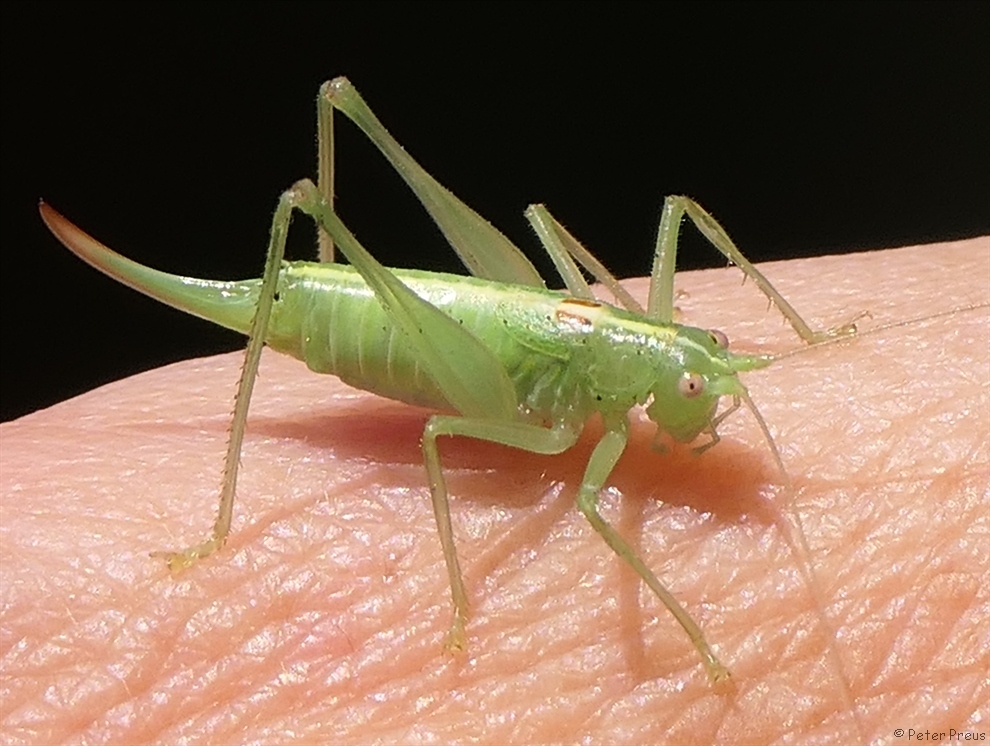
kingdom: Animalia
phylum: Arthropoda
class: Insecta
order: Orthoptera
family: Tettigoniidae
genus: Meconema
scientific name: Meconema meridionale
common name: Southern oak bush-cricket
